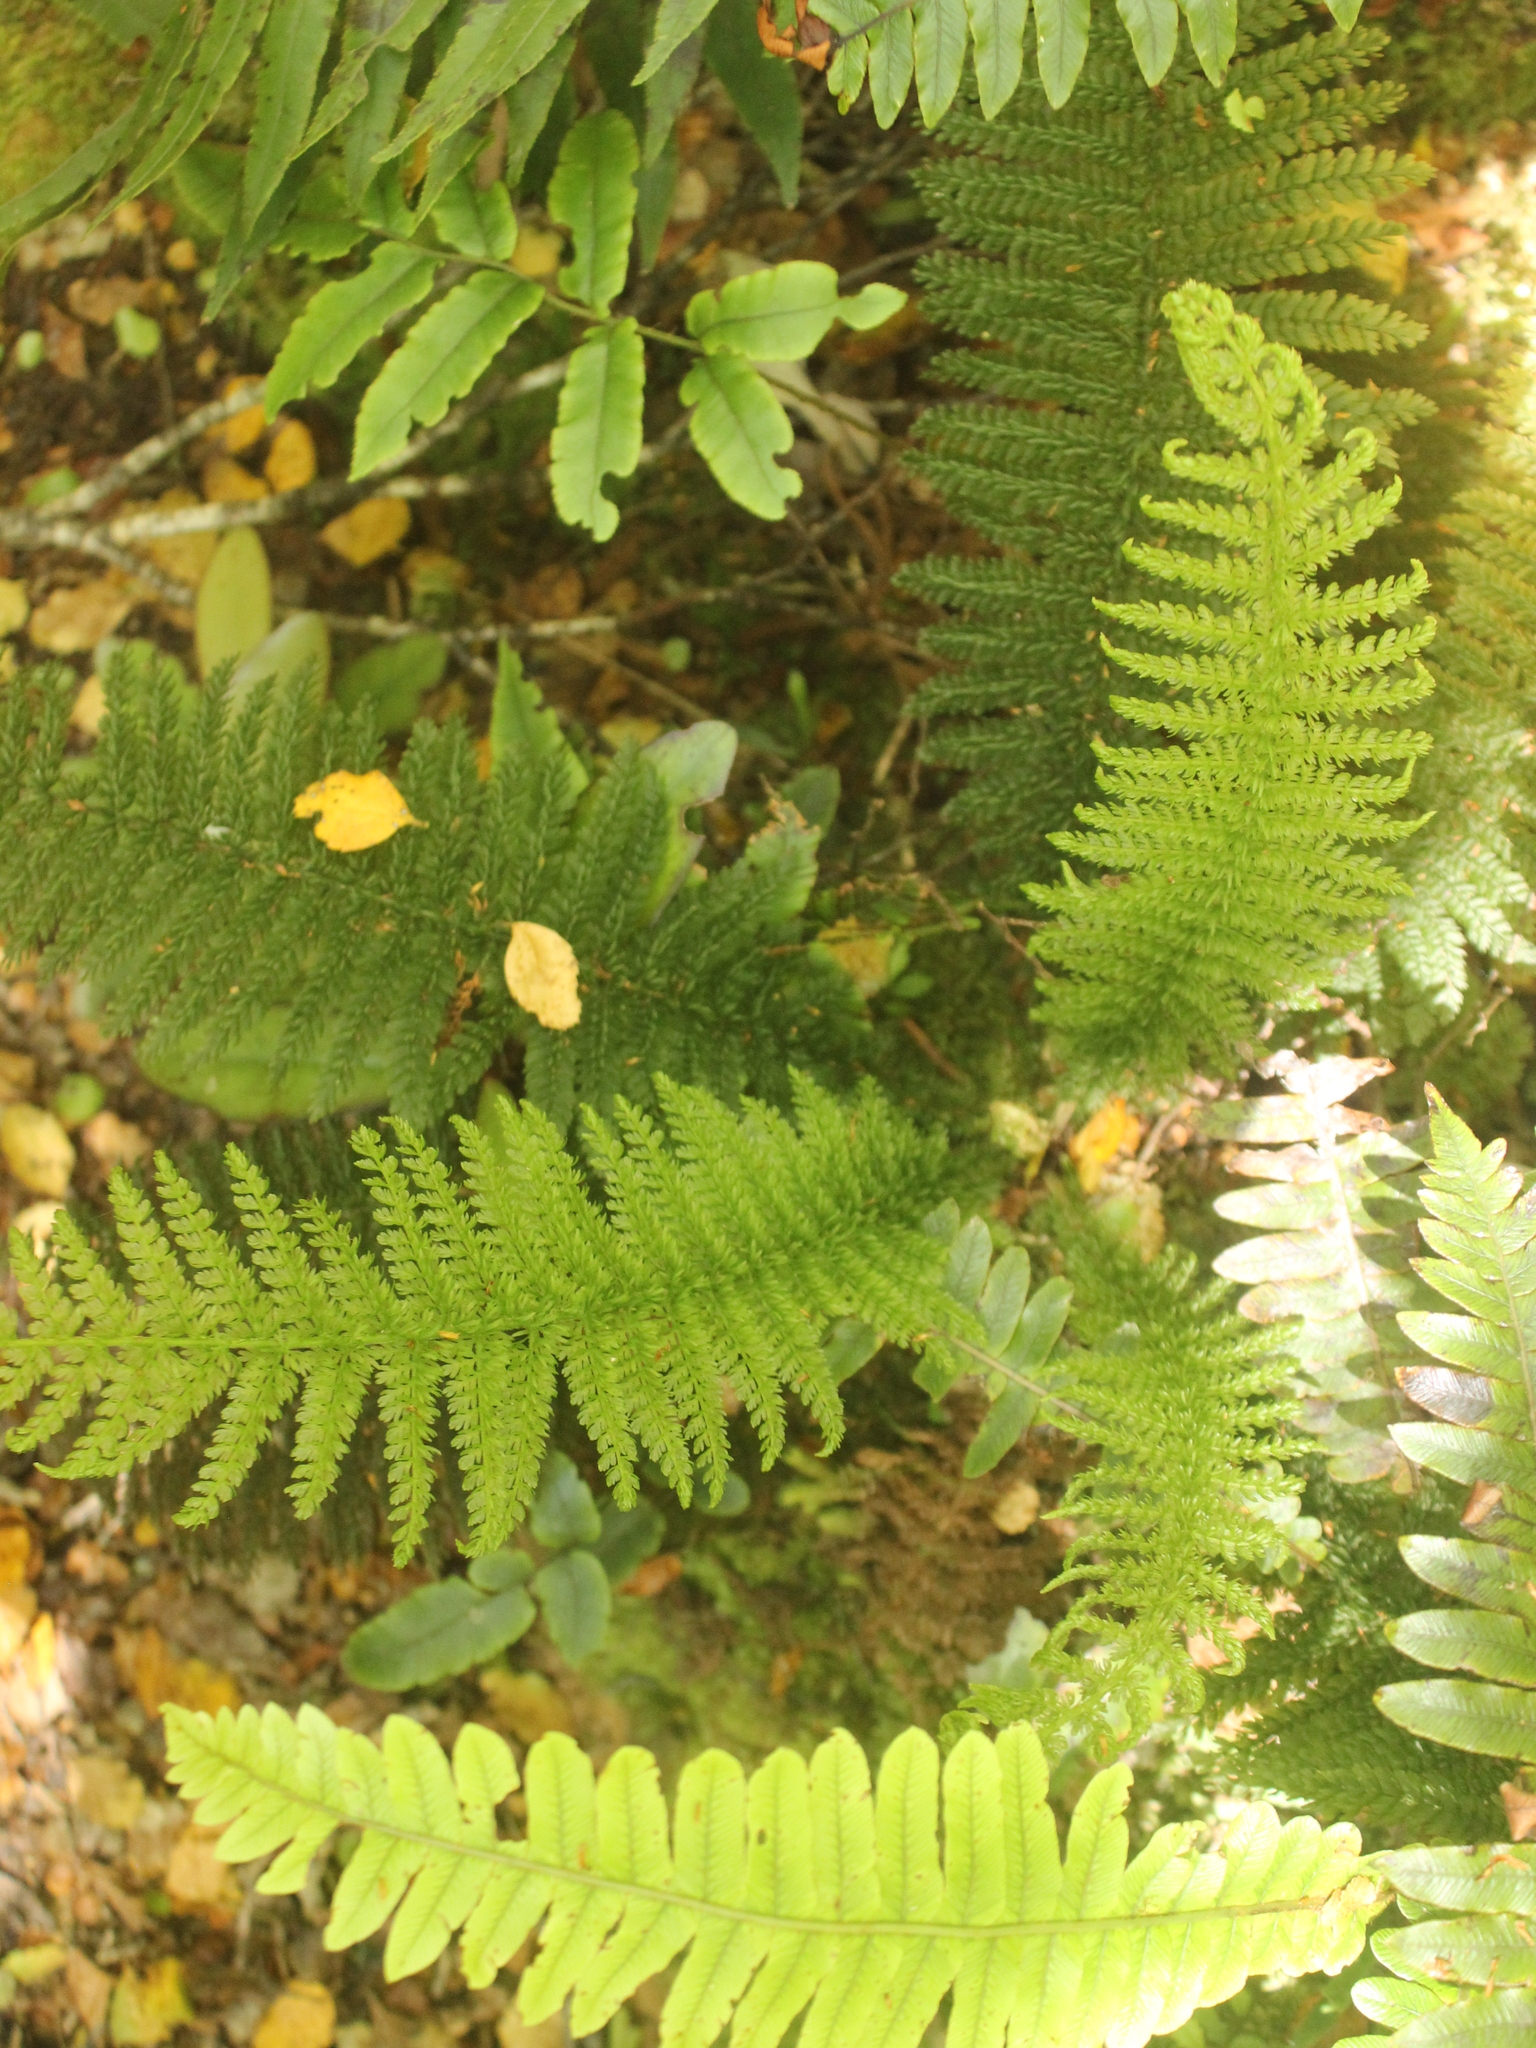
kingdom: Plantae
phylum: Tracheophyta
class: Polypodiopsida
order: Osmundales
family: Osmundaceae
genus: Leptopteris
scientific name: Leptopteris superba
